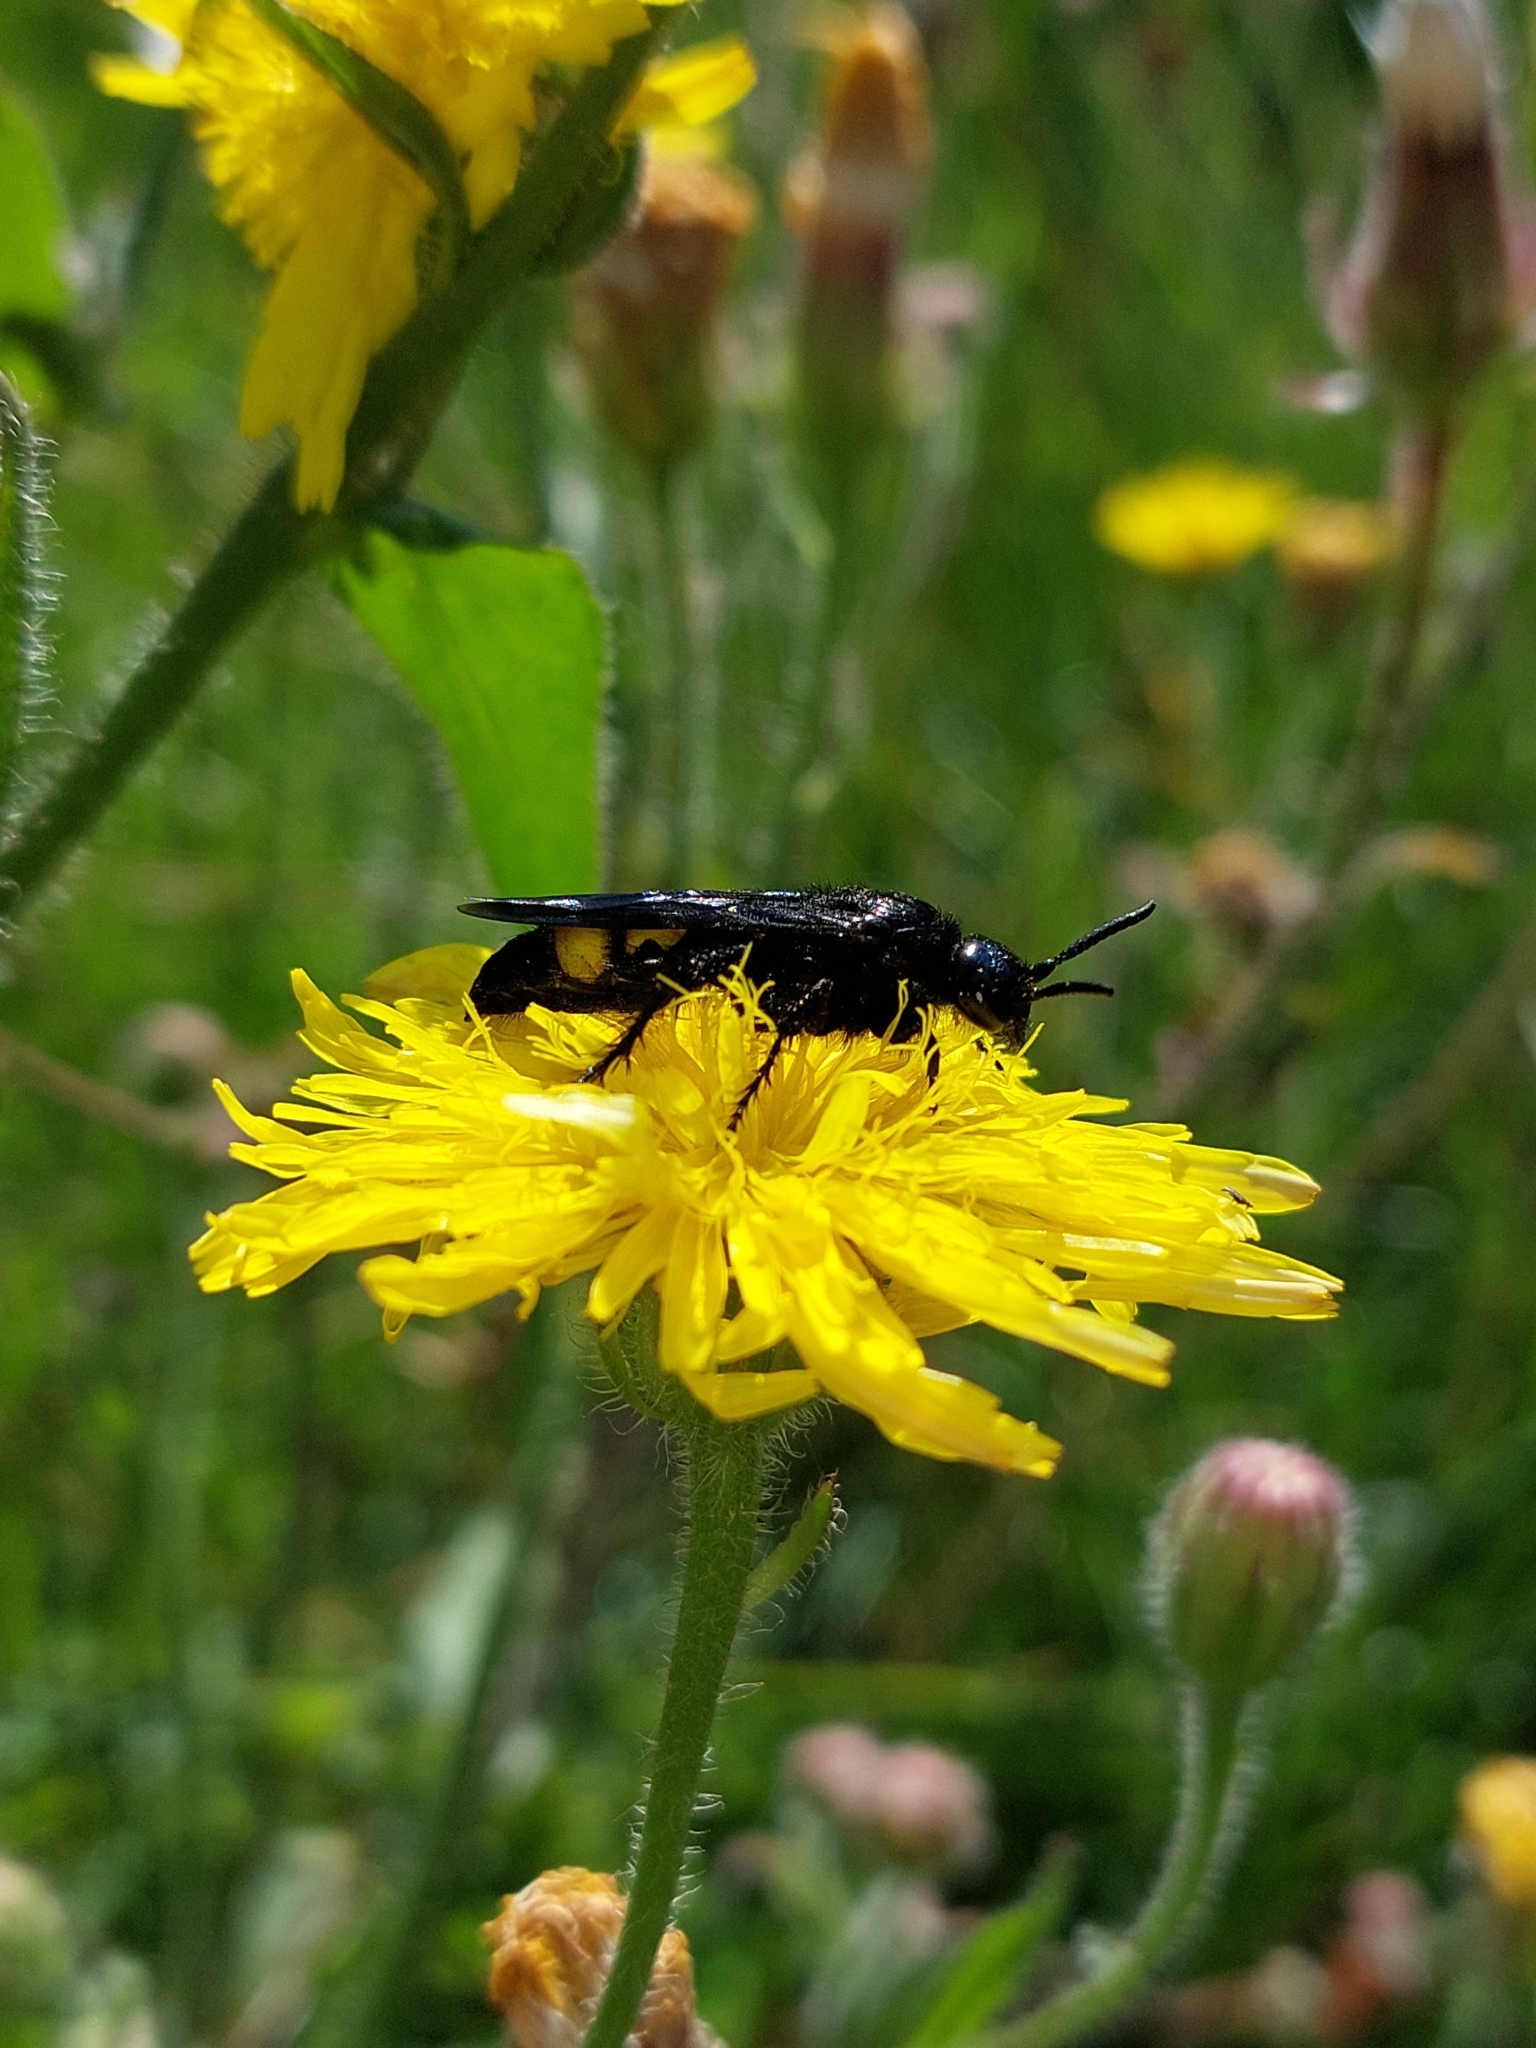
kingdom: Animalia
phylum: Arthropoda
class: Insecta
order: Hymenoptera
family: Scoliidae
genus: Scolia
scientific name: Scolia hirta
